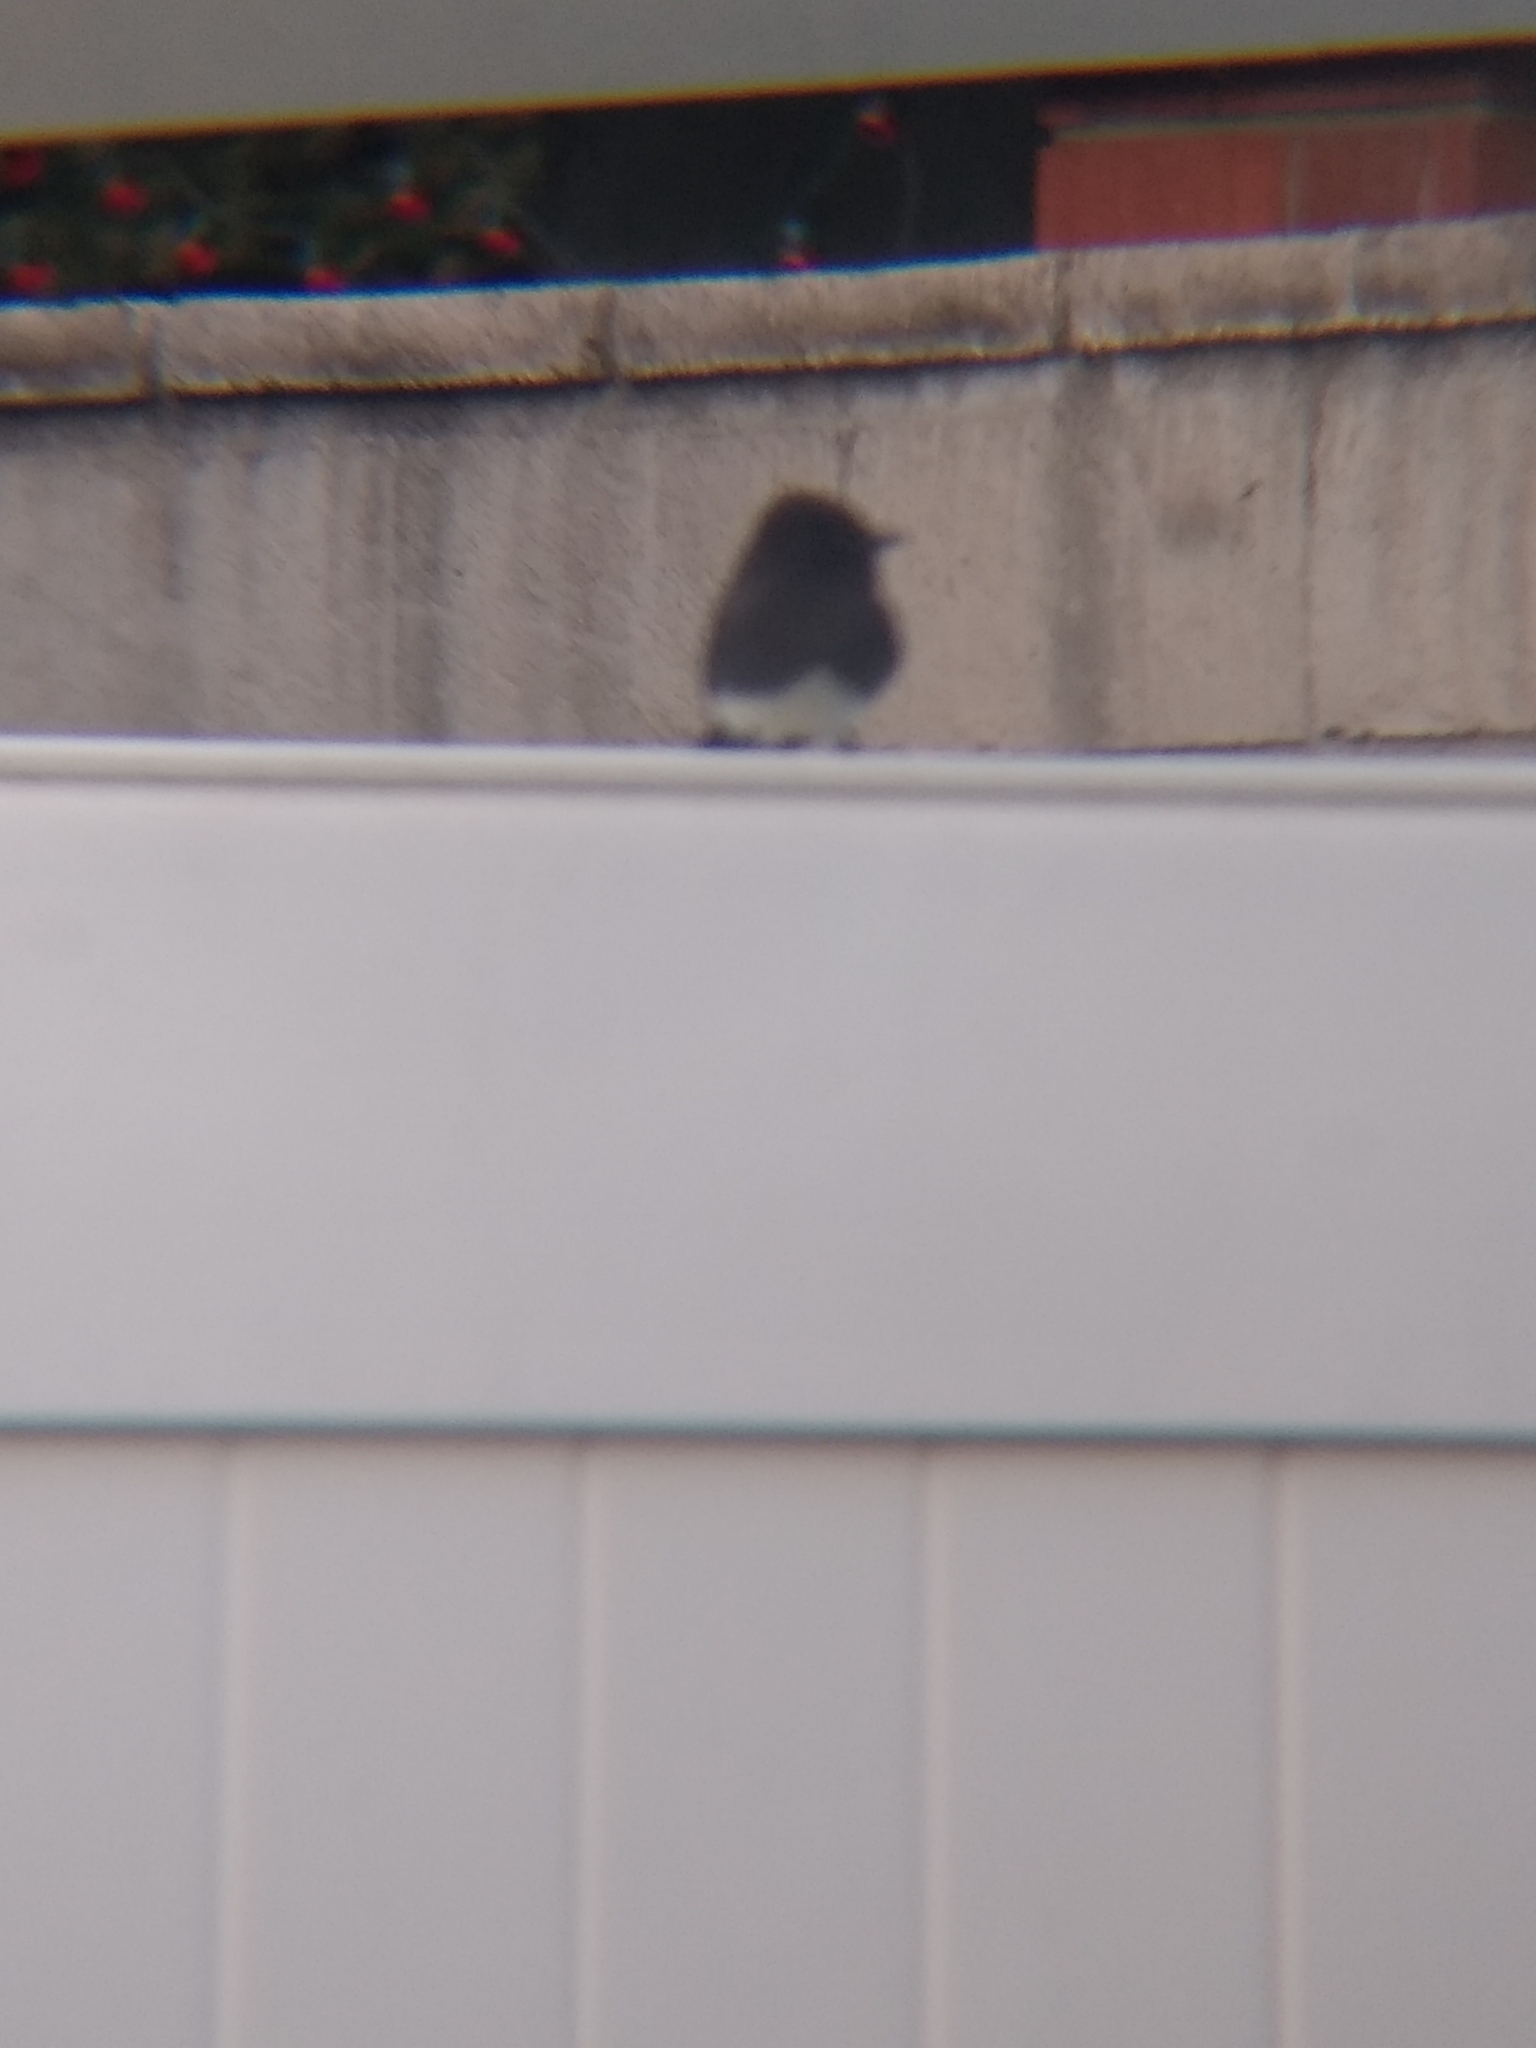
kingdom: Animalia
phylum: Chordata
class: Aves
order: Passeriformes
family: Tyrannidae
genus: Sayornis
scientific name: Sayornis nigricans
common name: Black phoebe
